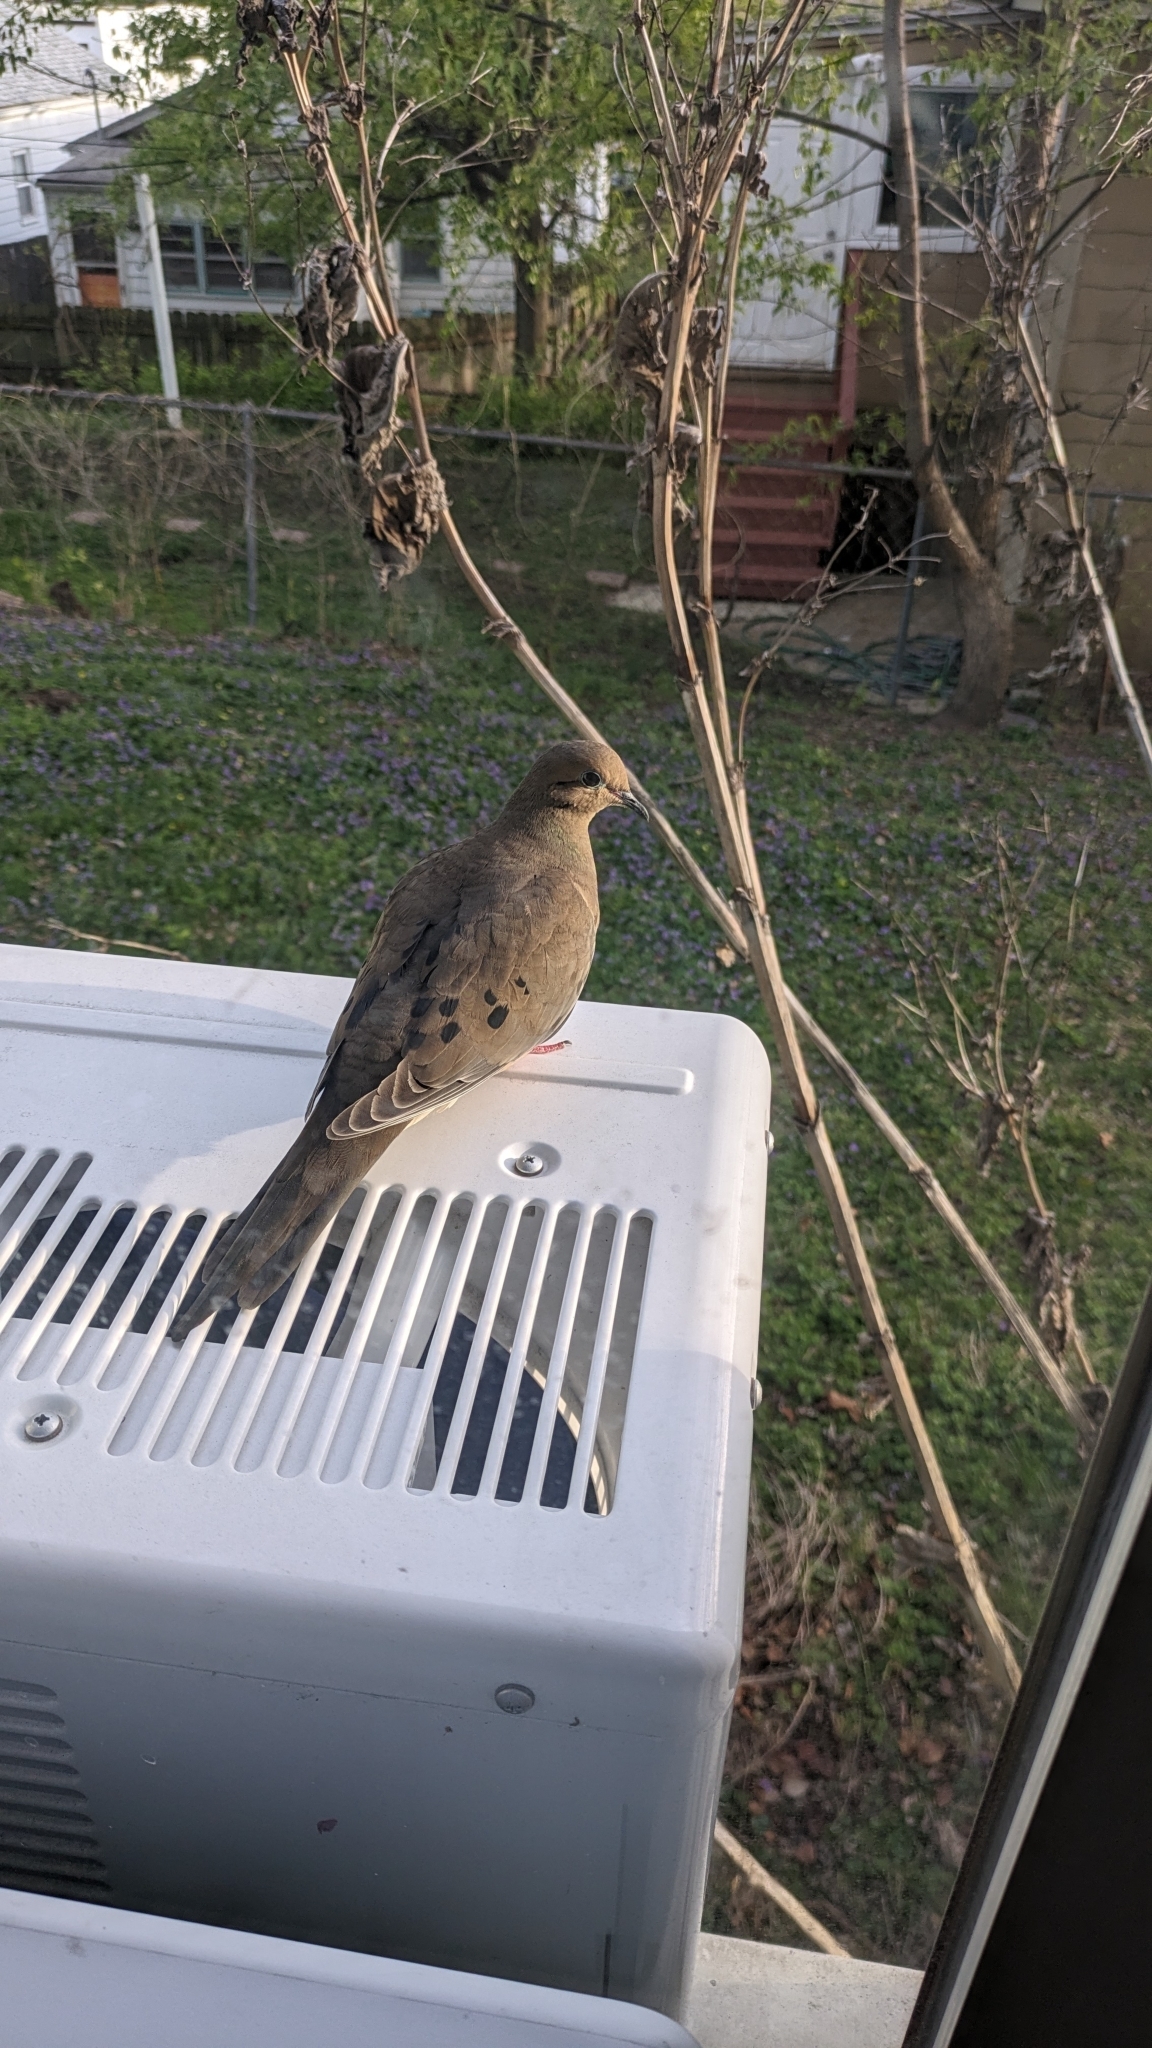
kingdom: Animalia
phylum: Chordata
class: Aves
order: Columbiformes
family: Columbidae
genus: Zenaida
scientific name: Zenaida macroura
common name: Mourning dove
